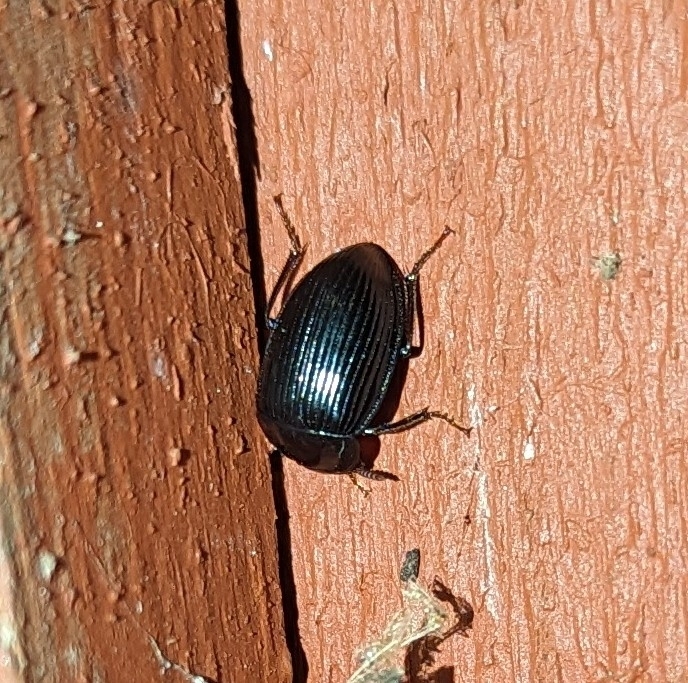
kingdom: Animalia
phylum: Arthropoda
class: Insecta
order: Coleoptera
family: Agyrtidae
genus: Necrophilus
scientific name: Necrophilus hydrophiloides
